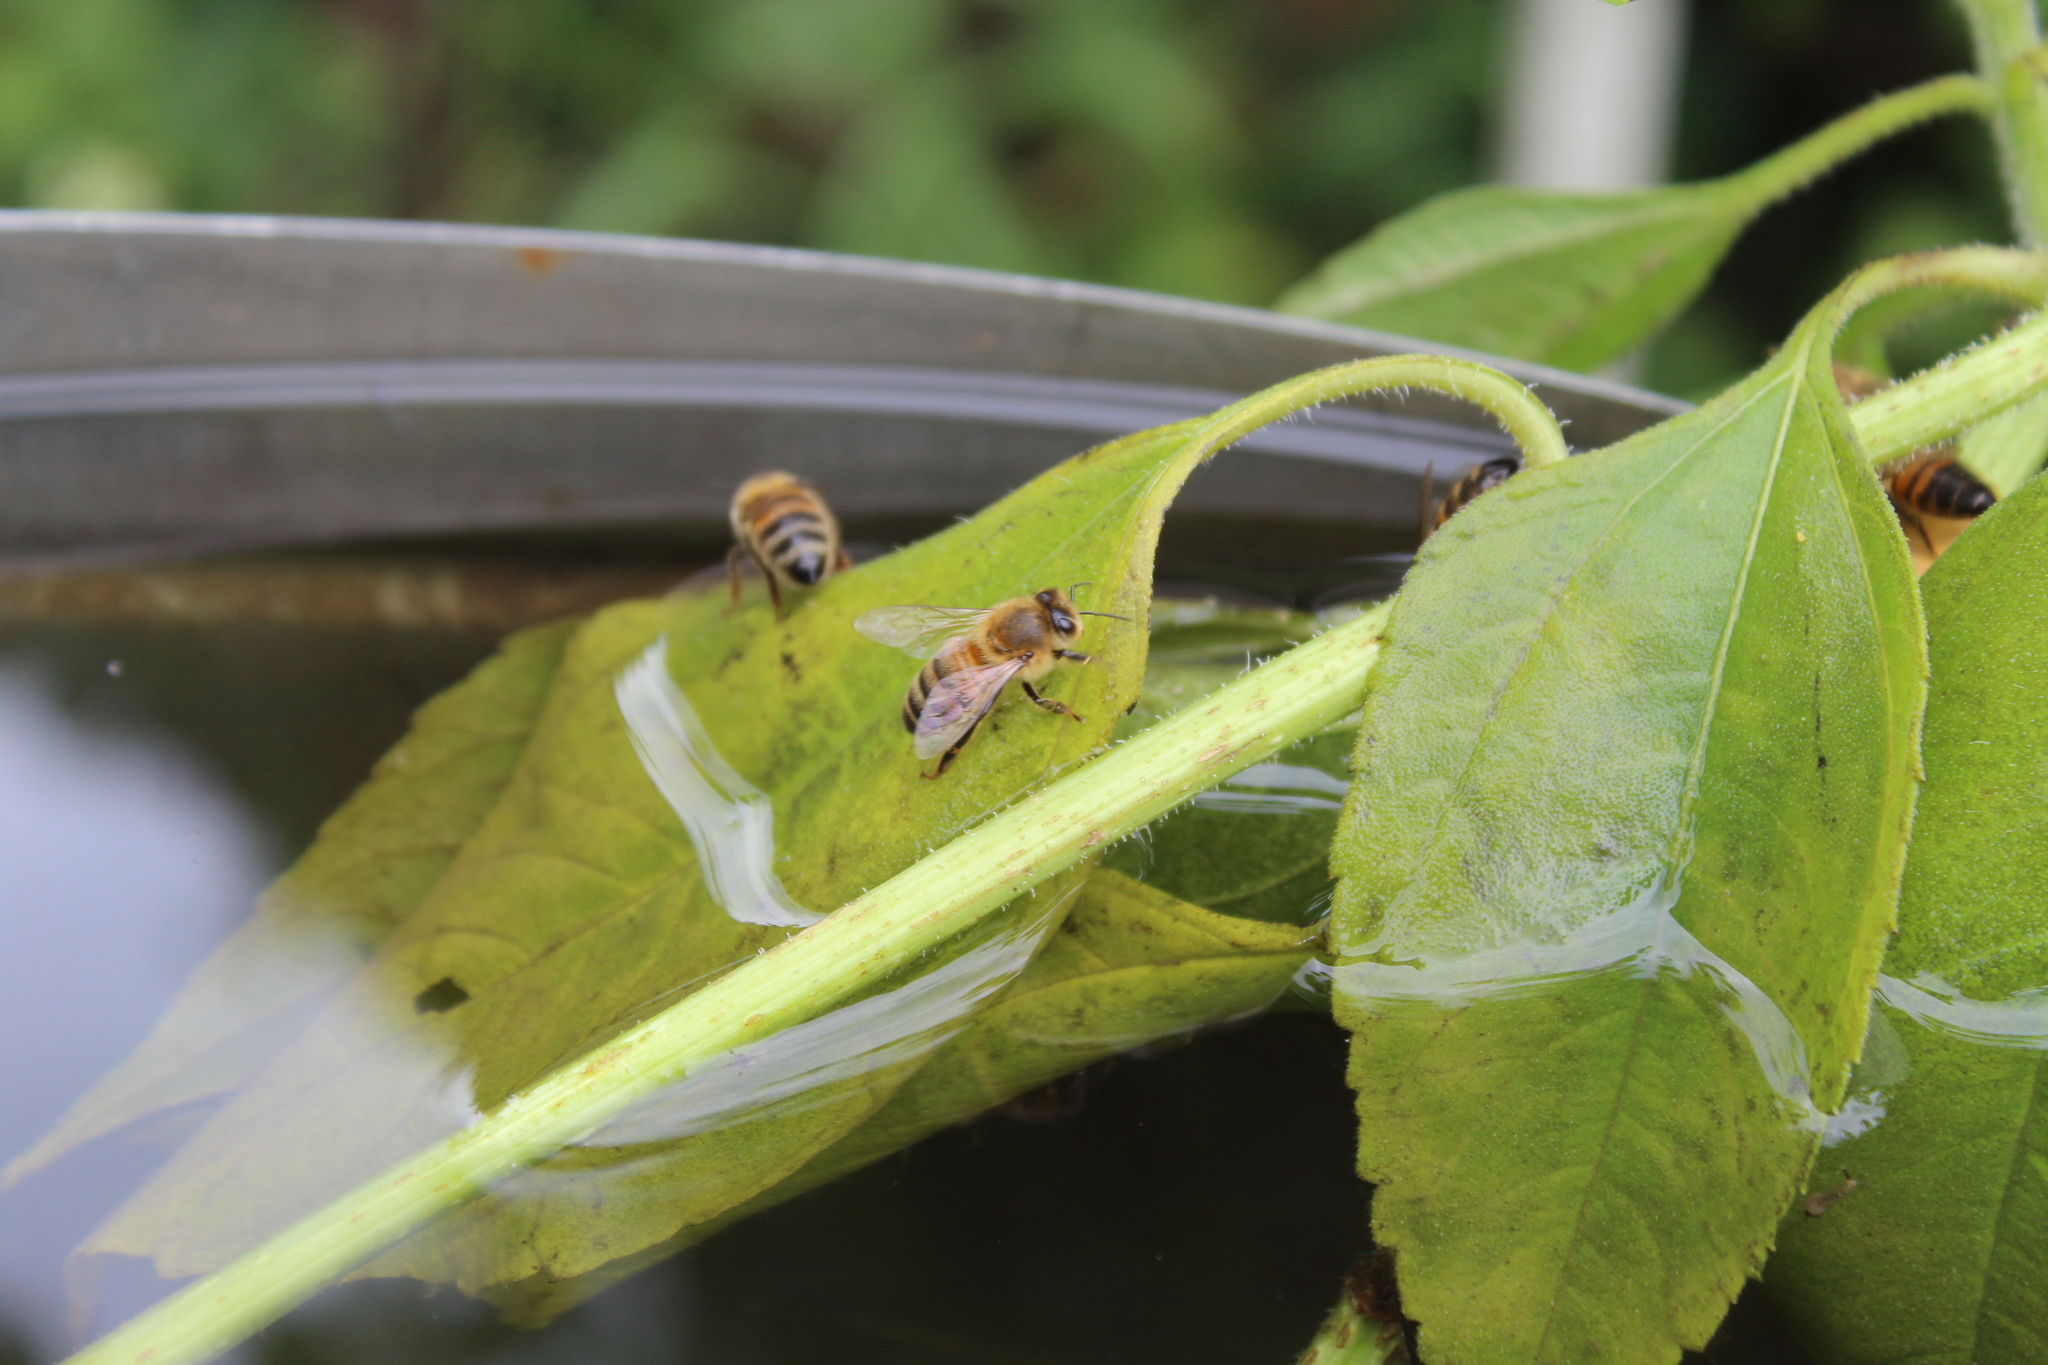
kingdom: Animalia
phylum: Arthropoda
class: Insecta
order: Hymenoptera
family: Apidae
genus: Apis
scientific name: Apis mellifera
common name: Honey bee
